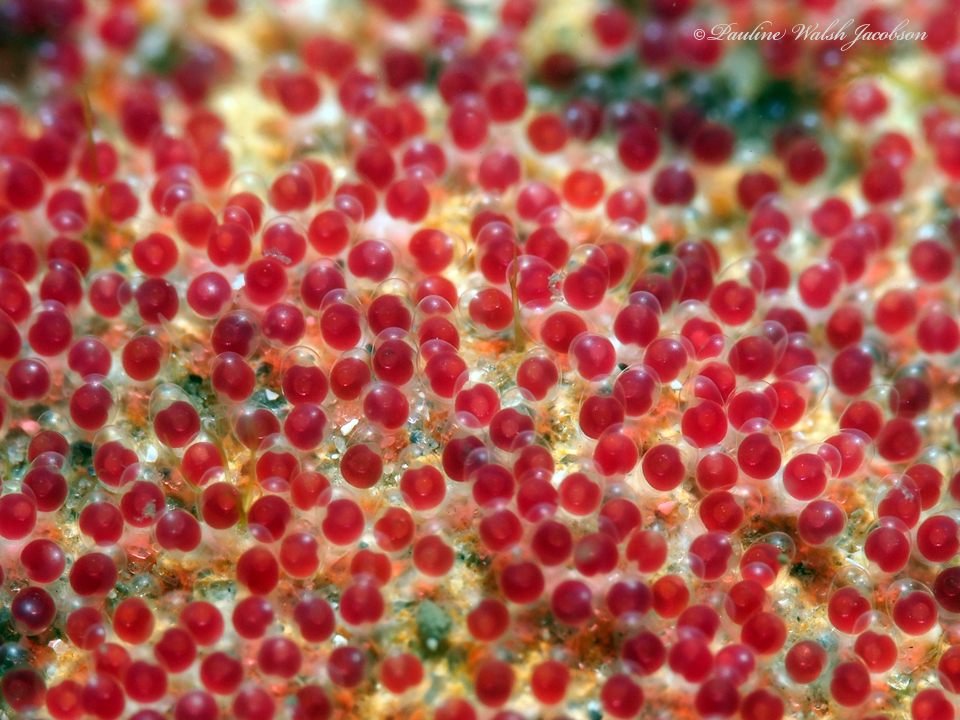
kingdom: Animalia
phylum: Chordata
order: Perciformes
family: Pomacentridae
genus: Abudefduf
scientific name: Abudefduf saxatilis
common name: Sergeant major
